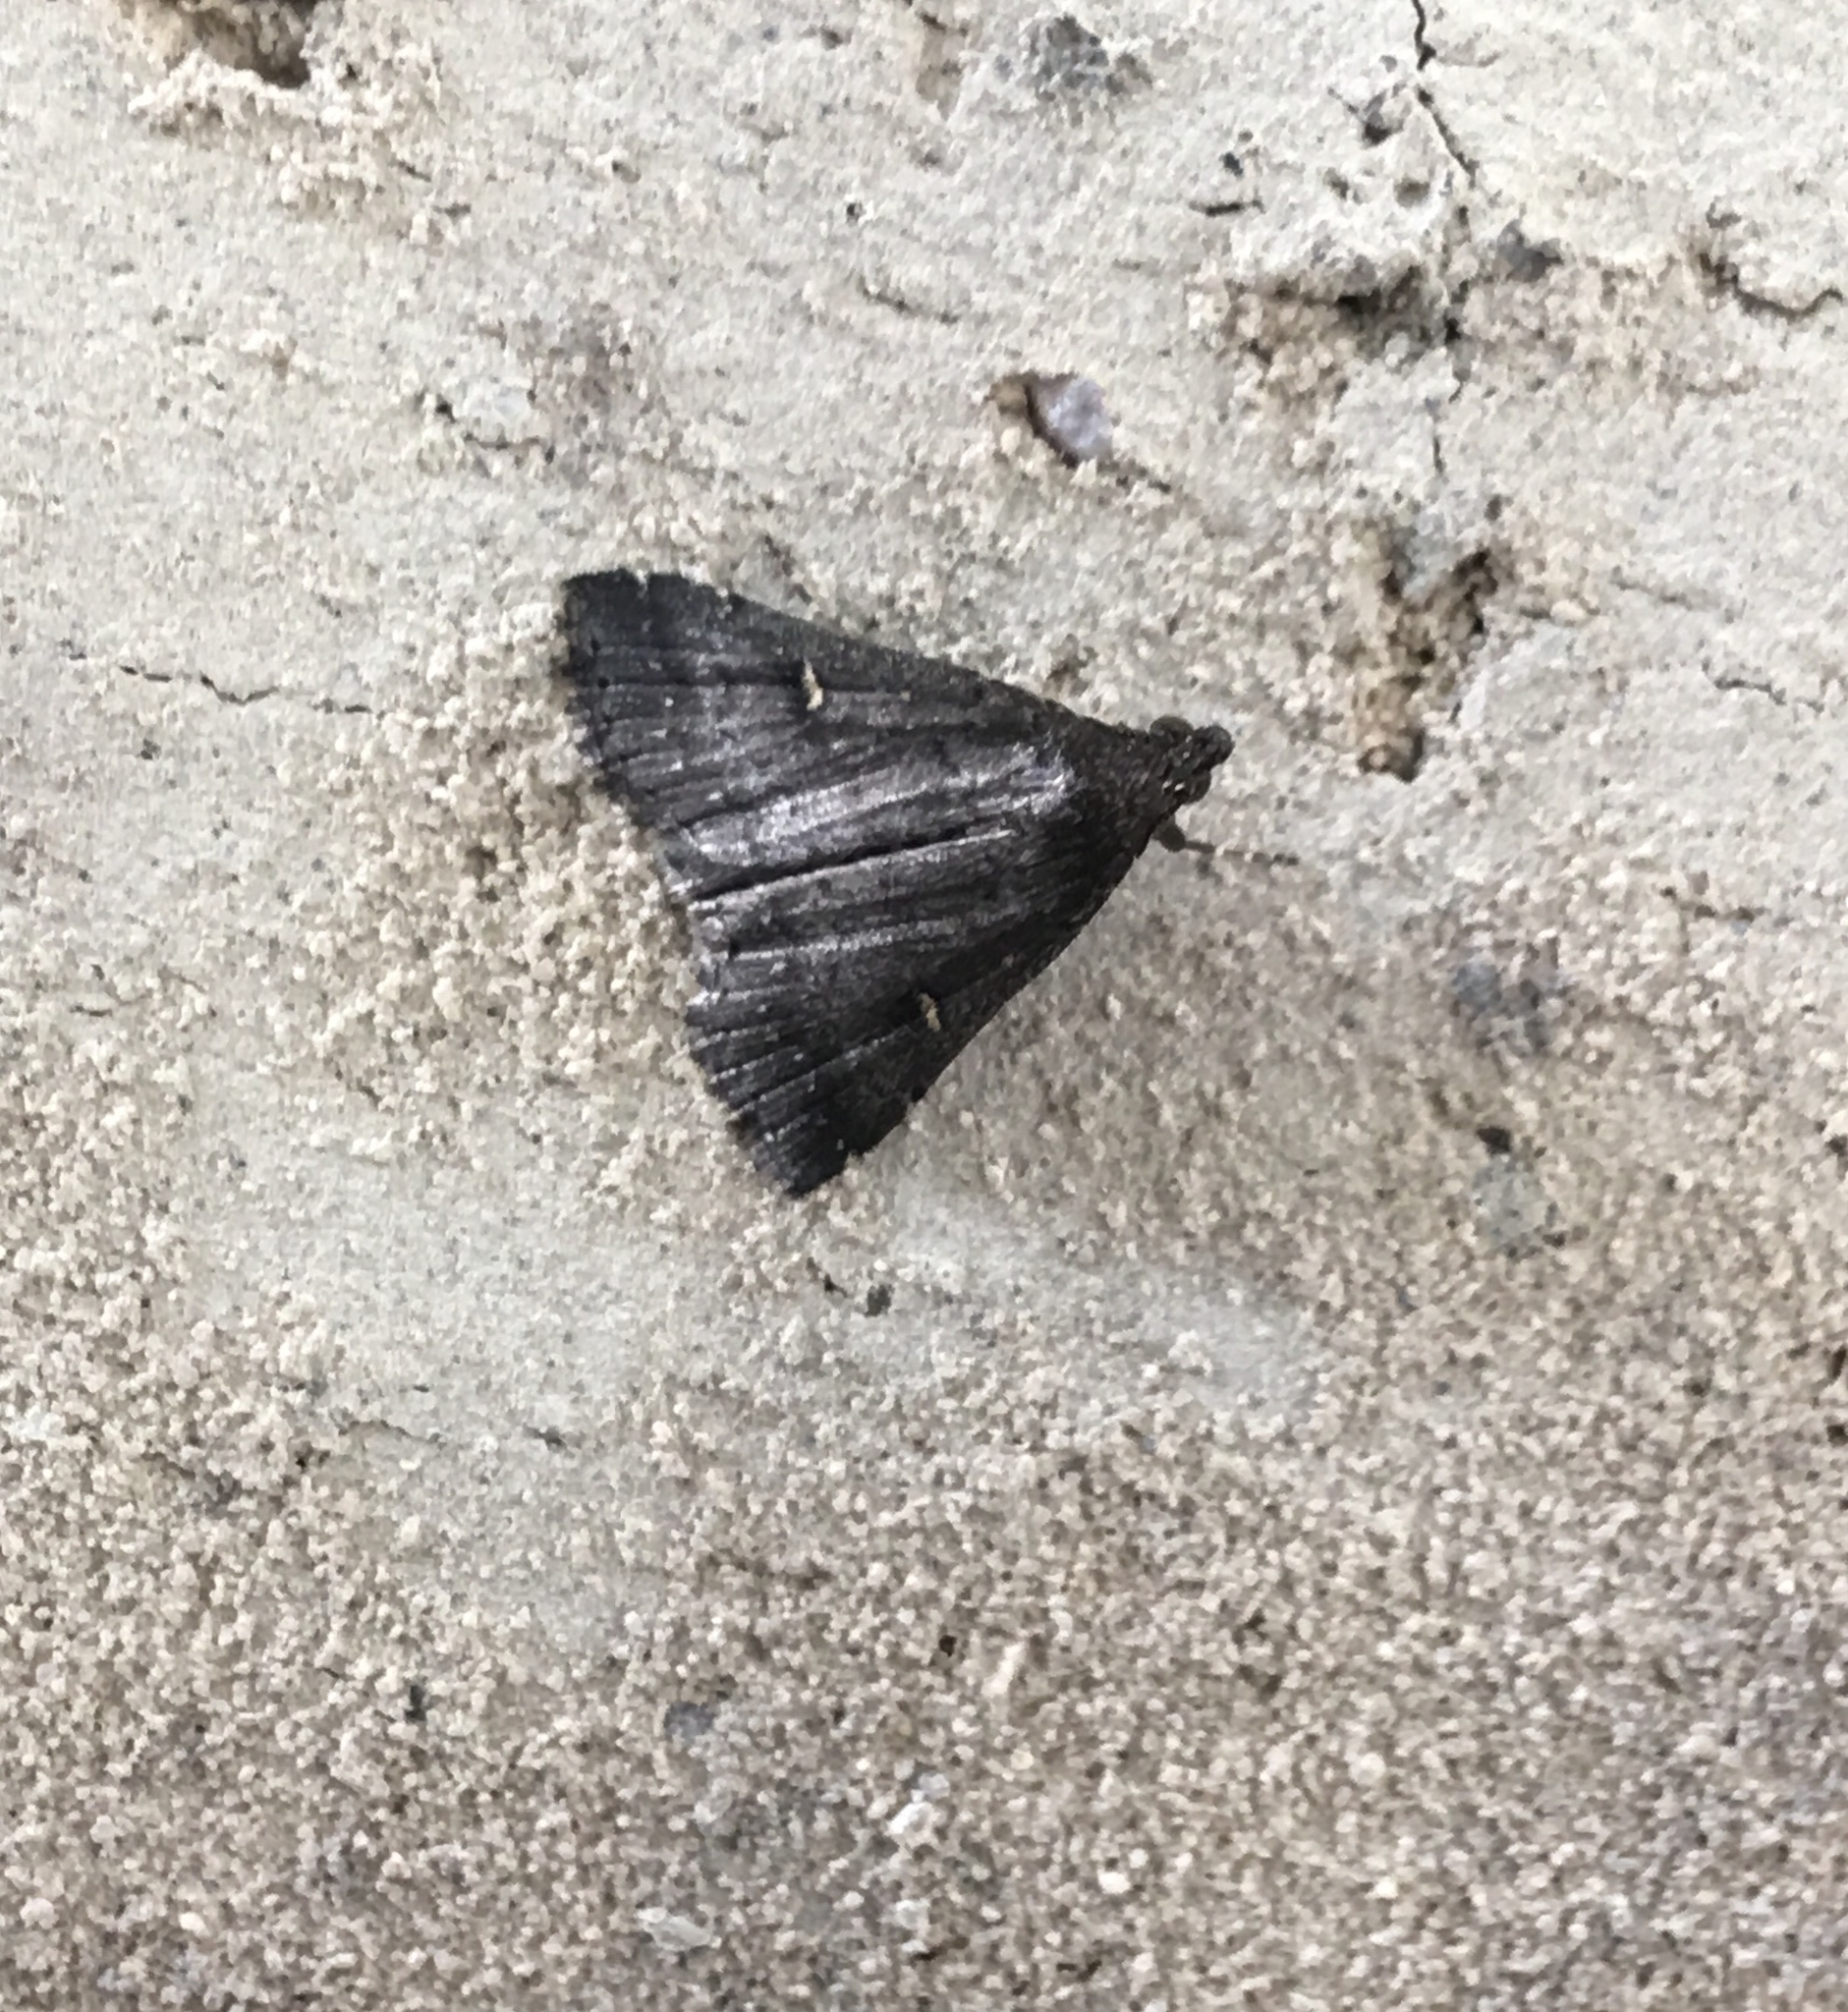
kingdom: Animalia
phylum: Arthropoda
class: Insecta
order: Lepidoptera
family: Erebidae
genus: Tetanolita
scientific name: Tetanolita mynesalis
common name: Smoky tetanolita moth
